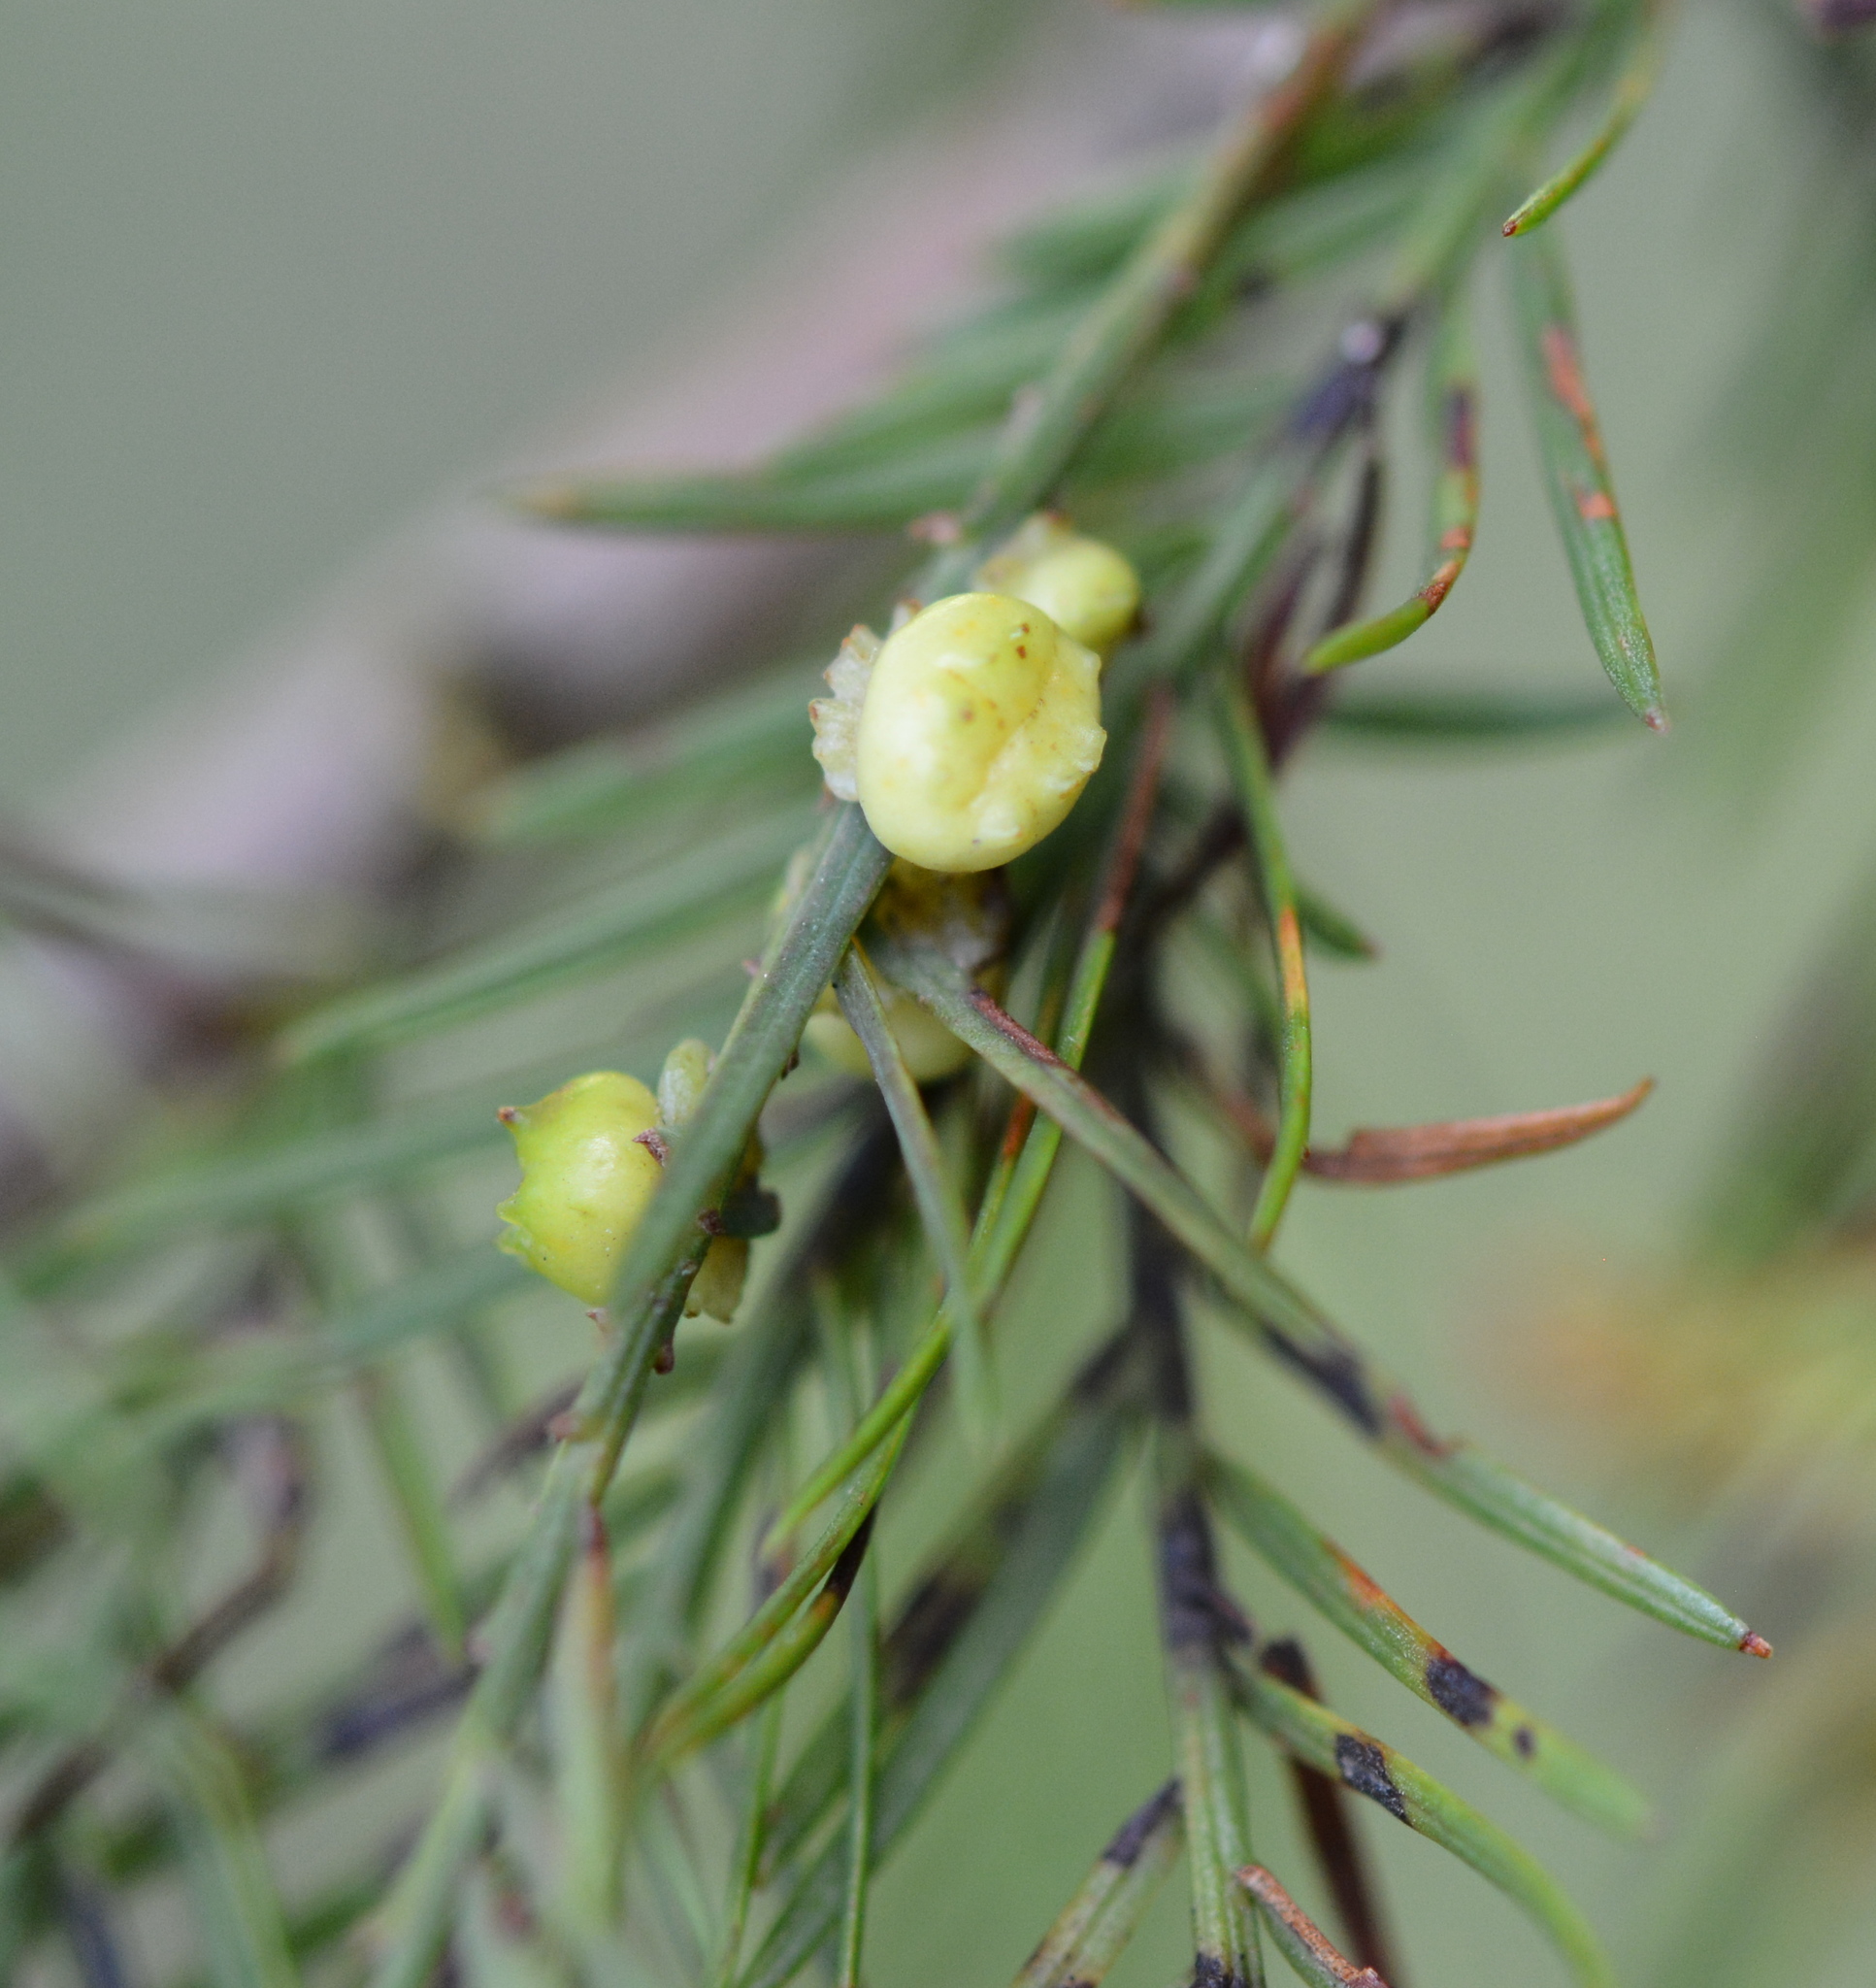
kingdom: Animalia
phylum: Arthropoda
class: Insecta
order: Diptera
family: Cecidomyiidae
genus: Taxodiomyia
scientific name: Taxodiomyia cupressi
